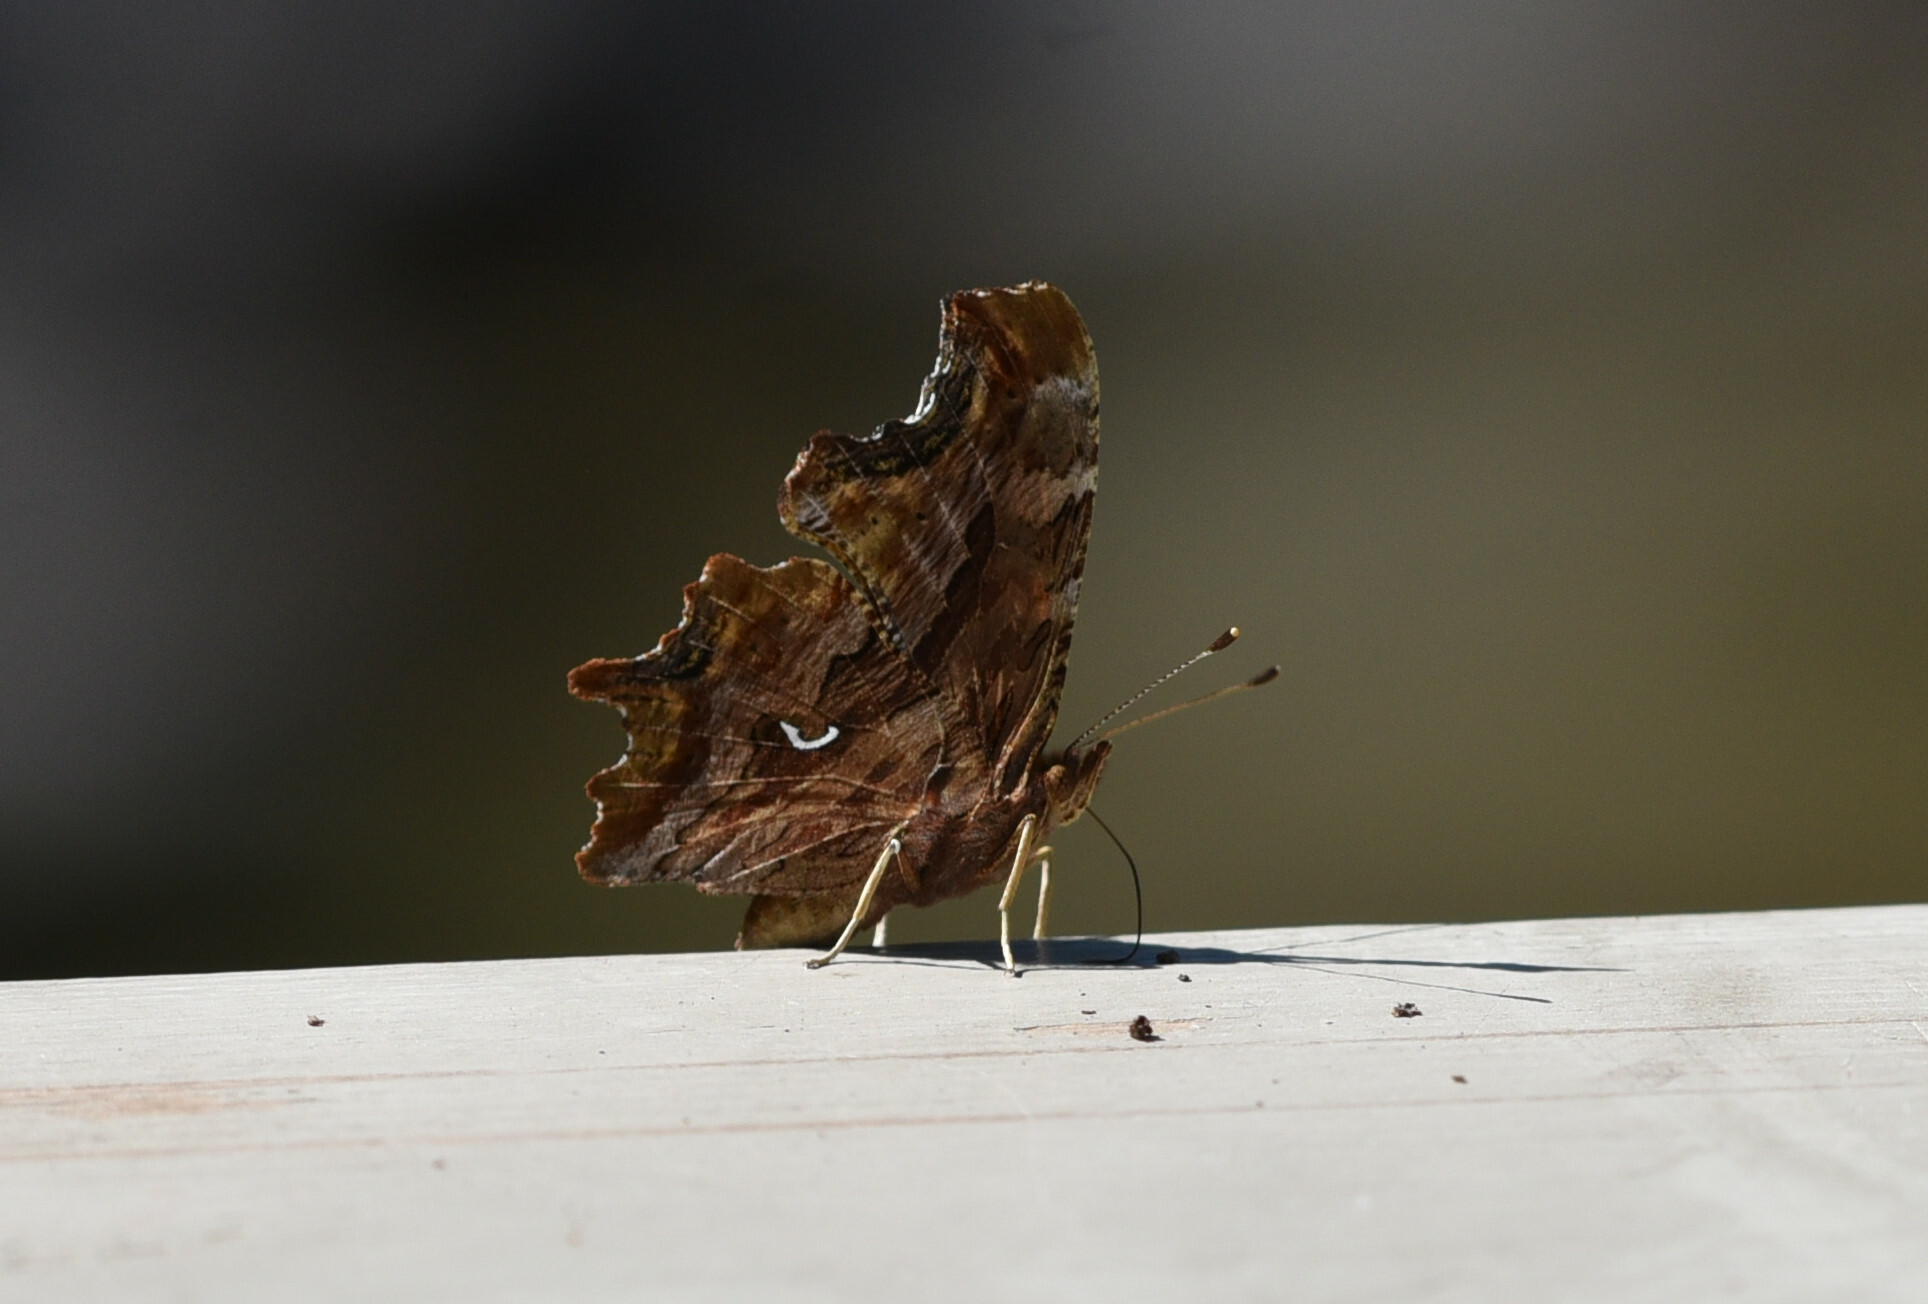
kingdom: Animalia
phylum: Arthropoda
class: Insecta
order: Lepidoptera
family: Nymphalidae
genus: Polygonia
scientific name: Polygonia satyrus
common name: Satyr angle wing
